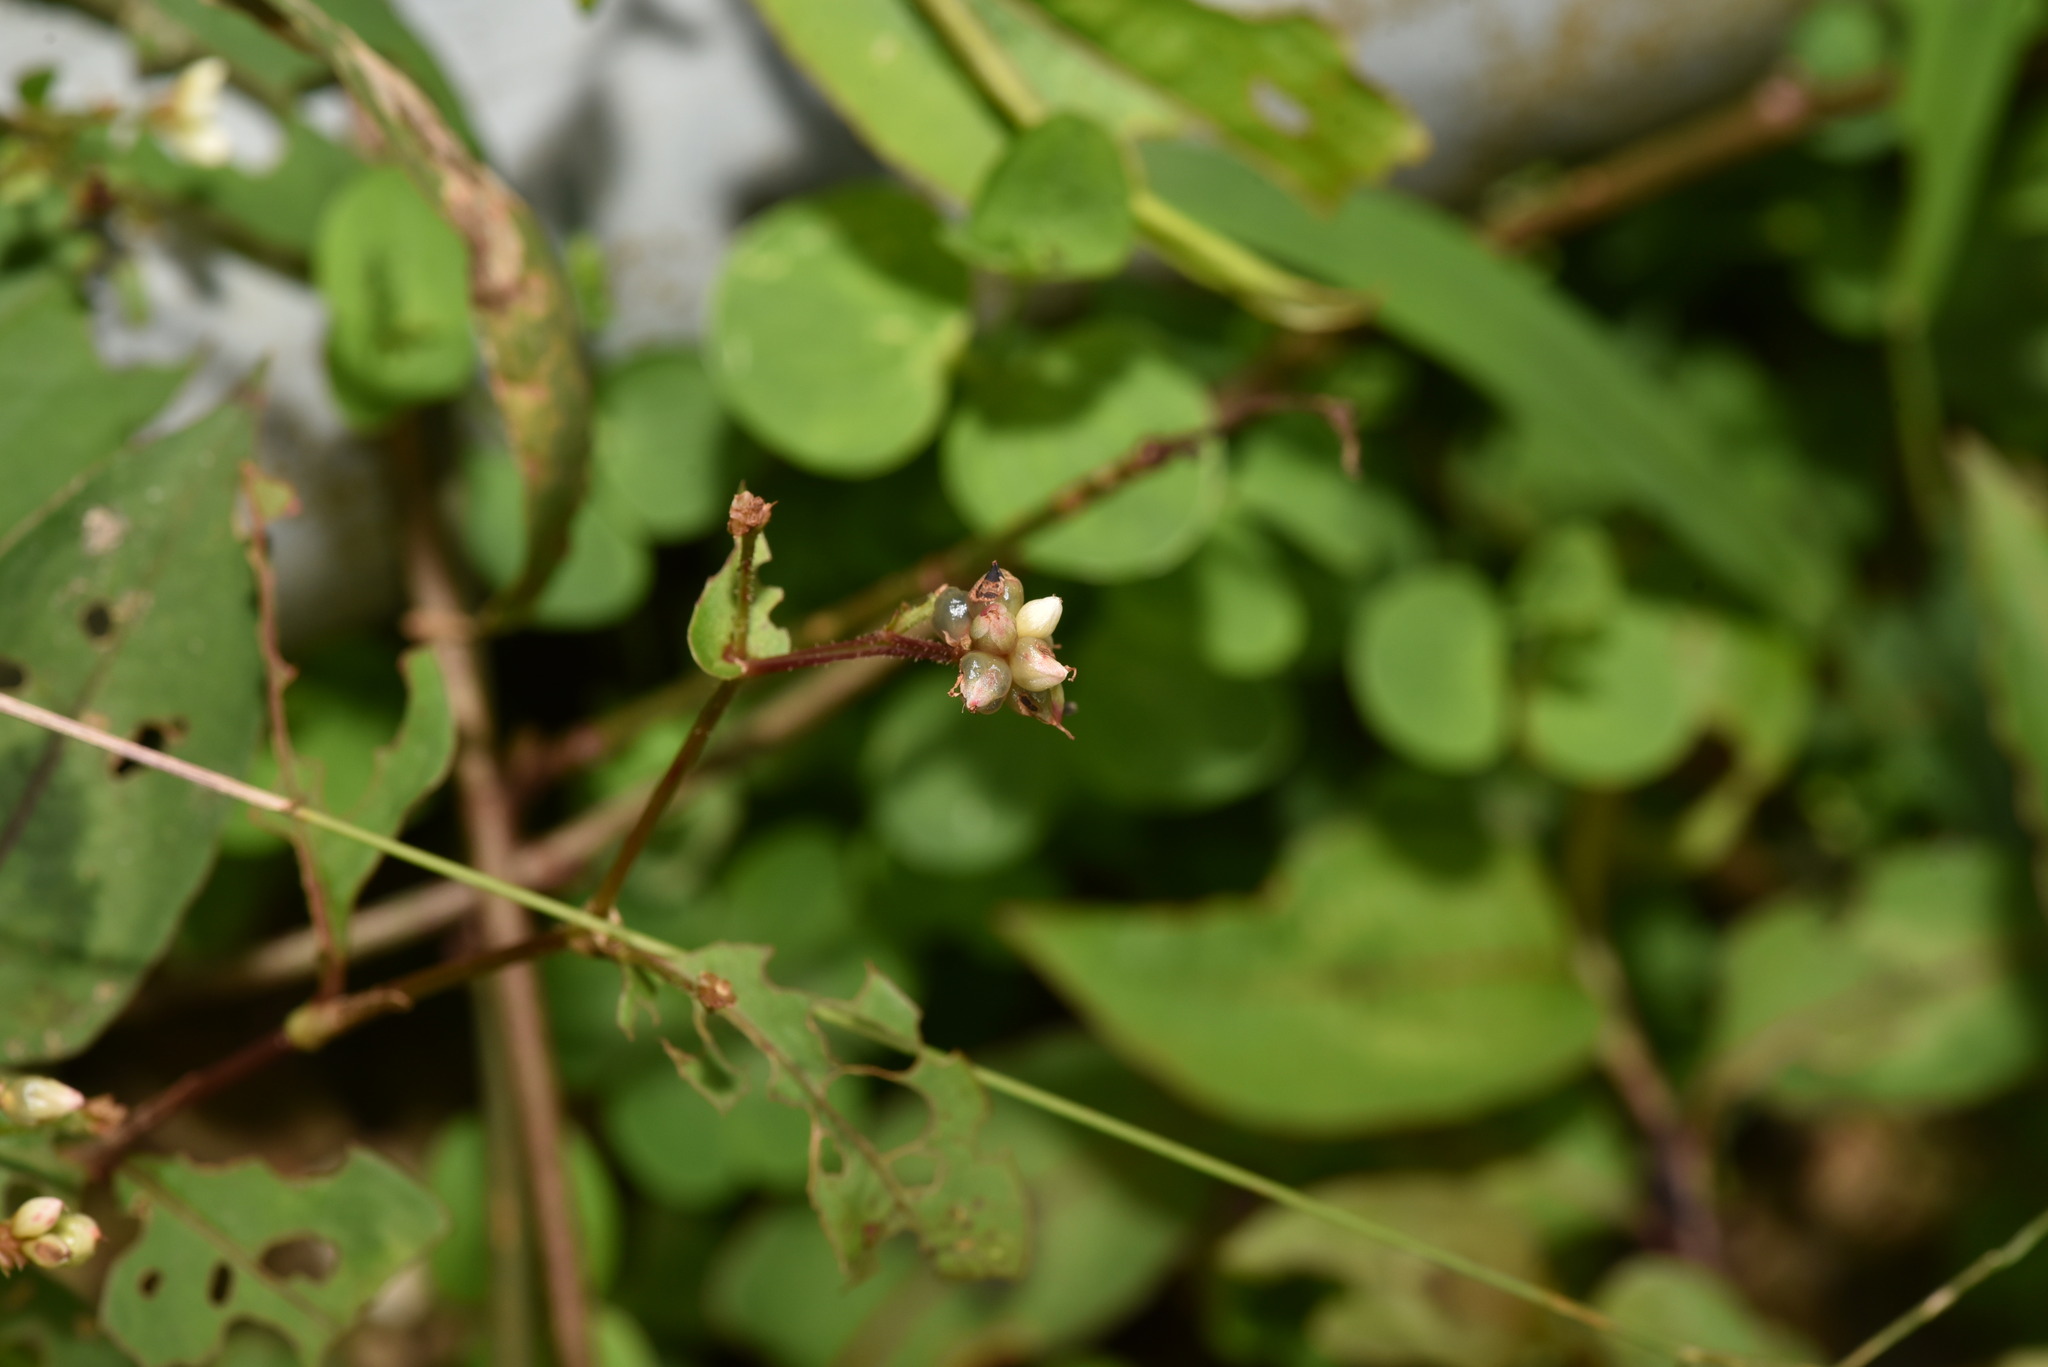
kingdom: Plantae
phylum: Tracheophyta
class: Magnoliopsida
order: Caryophyllales
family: Polygonaceae
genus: Persicaria
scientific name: Persicaria chinensis
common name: Chinese knotweed
